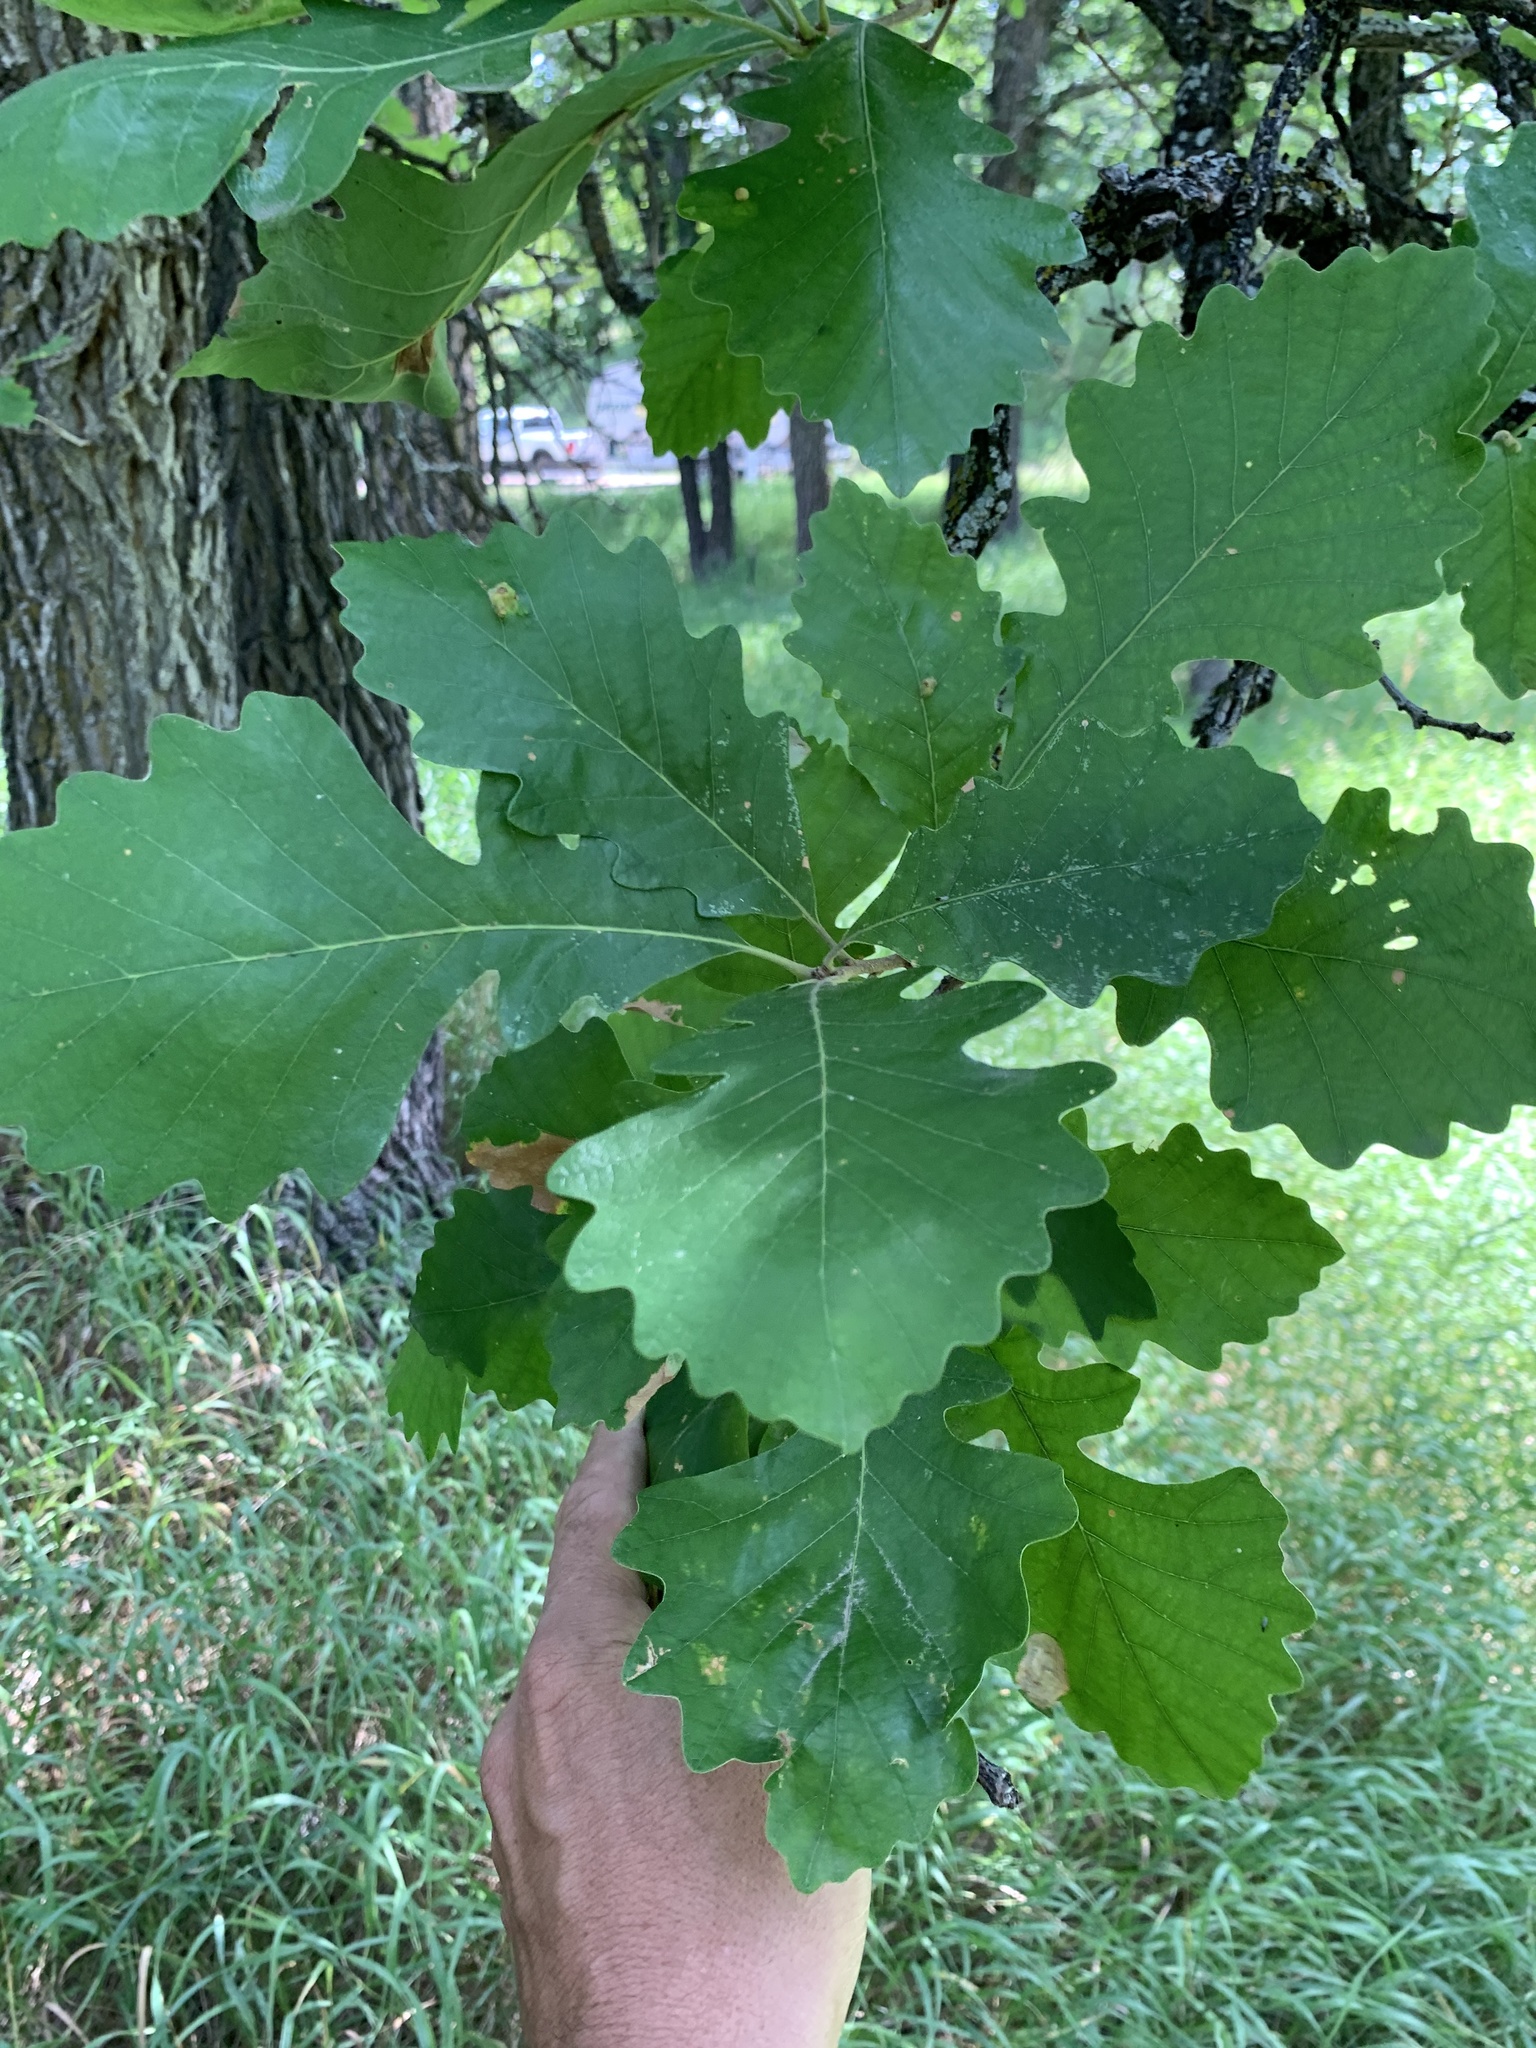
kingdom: Plantae
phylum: Tracheophyta
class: Magnoliopsida
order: Fagales
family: Fagaceae
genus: Quercus
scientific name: Quercus macrocarpa
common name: Bur oak
